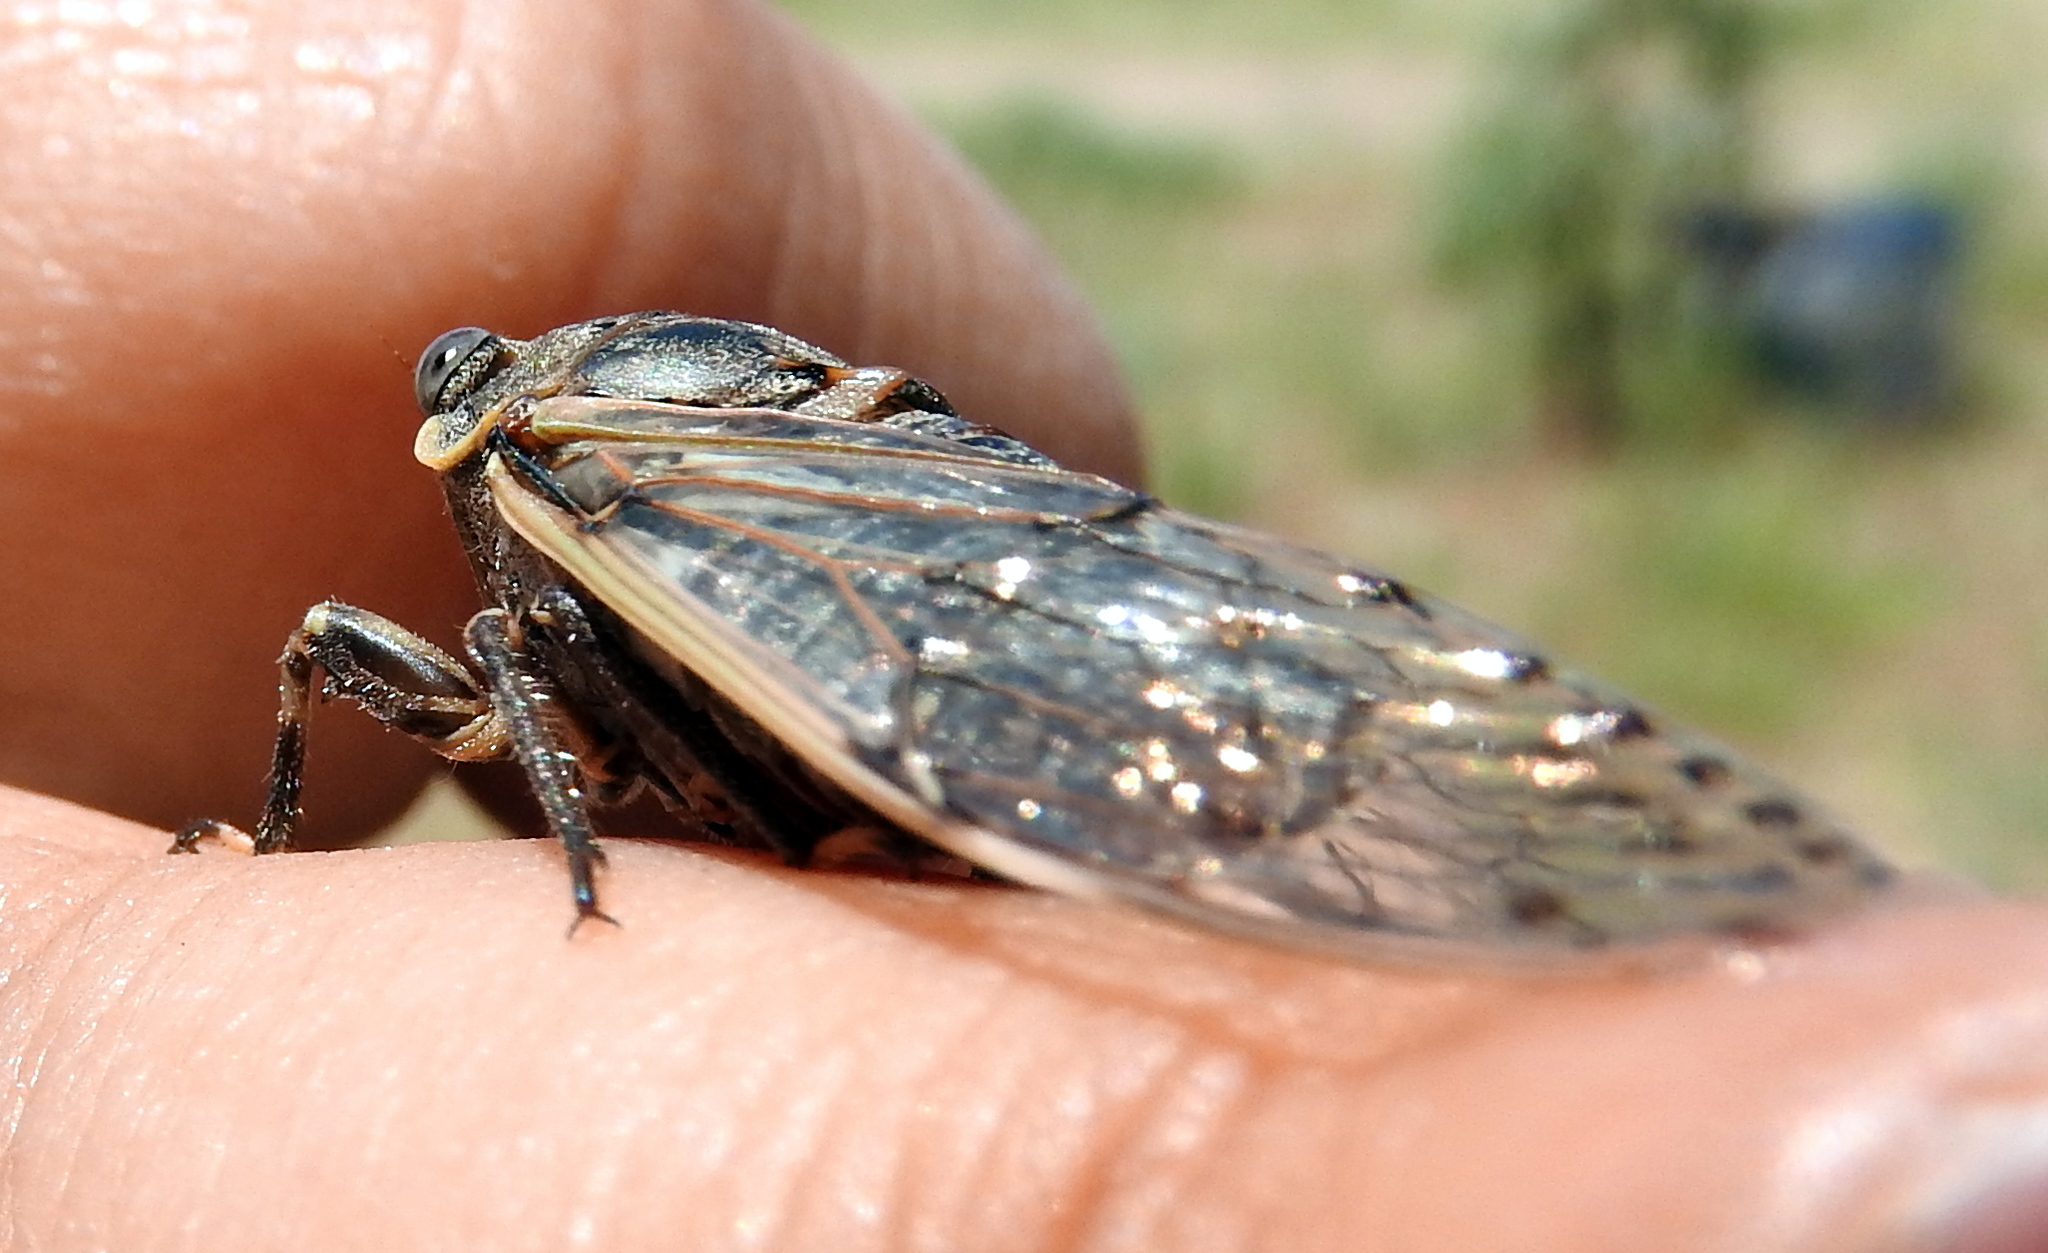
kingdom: Animalia
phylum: Arthropoda
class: Insecta
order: Hemiptera
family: Cicadidae
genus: Proarna
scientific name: Proarna bufo
